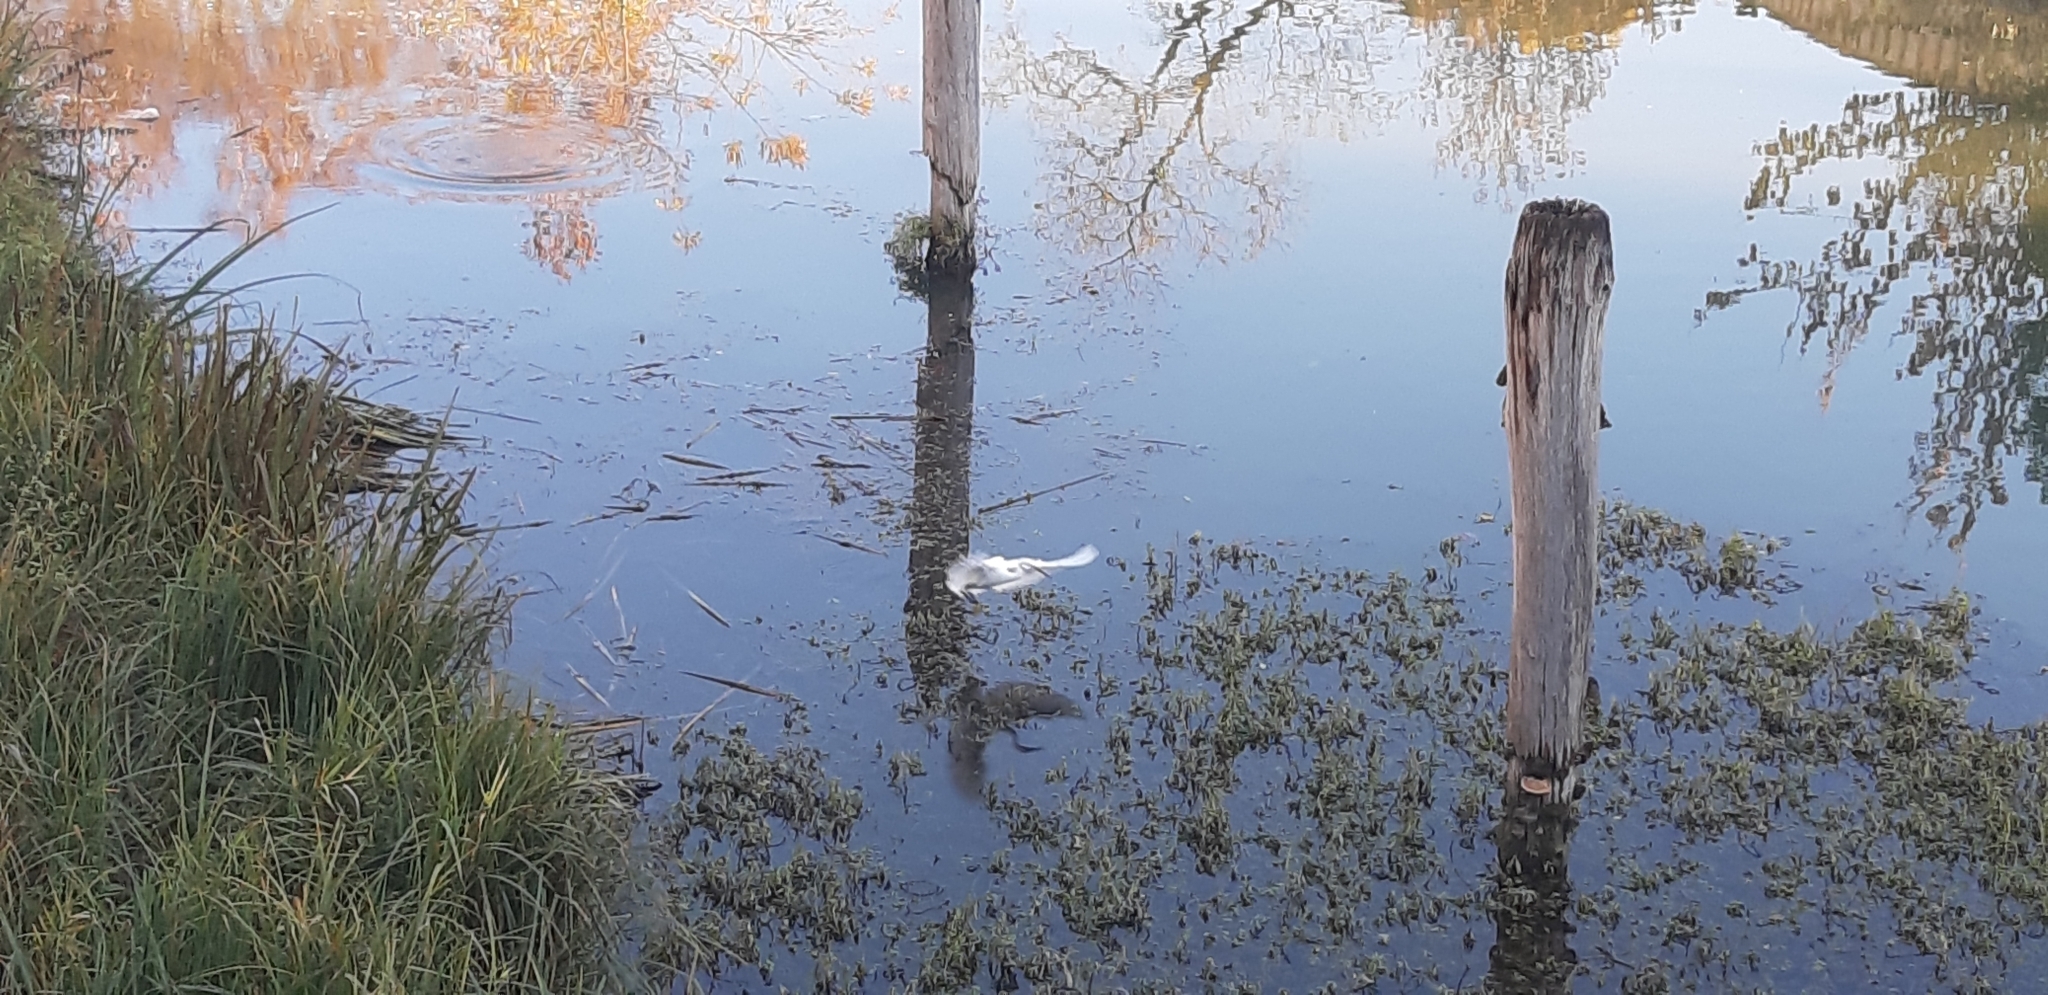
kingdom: Animalia
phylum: Chordata
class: Aves
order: Pelecaniformes
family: Ardeidae
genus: Egretta
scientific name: Egretta garzetta
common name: Little egret
